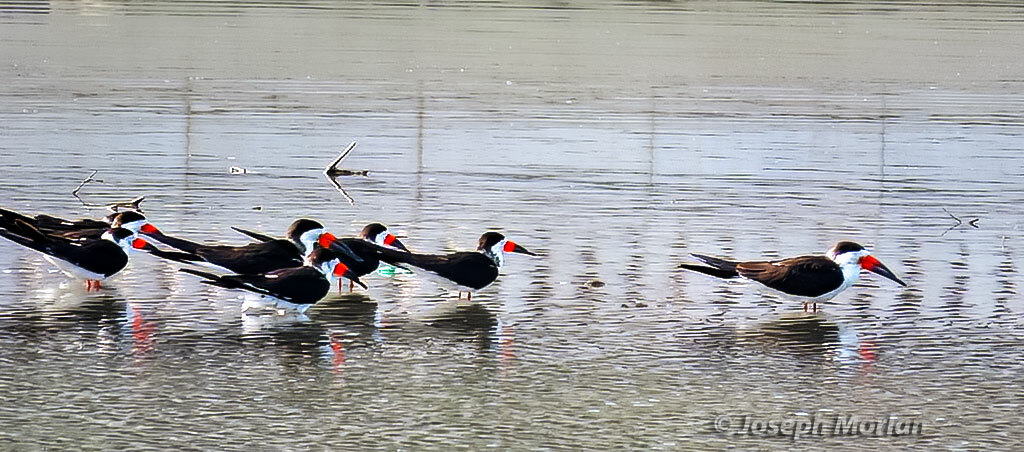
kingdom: Animalia
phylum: Chordata
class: Aves
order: Charadriiformes
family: Laridae
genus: Rynchops
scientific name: Rynchops niger
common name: Black skimmer
